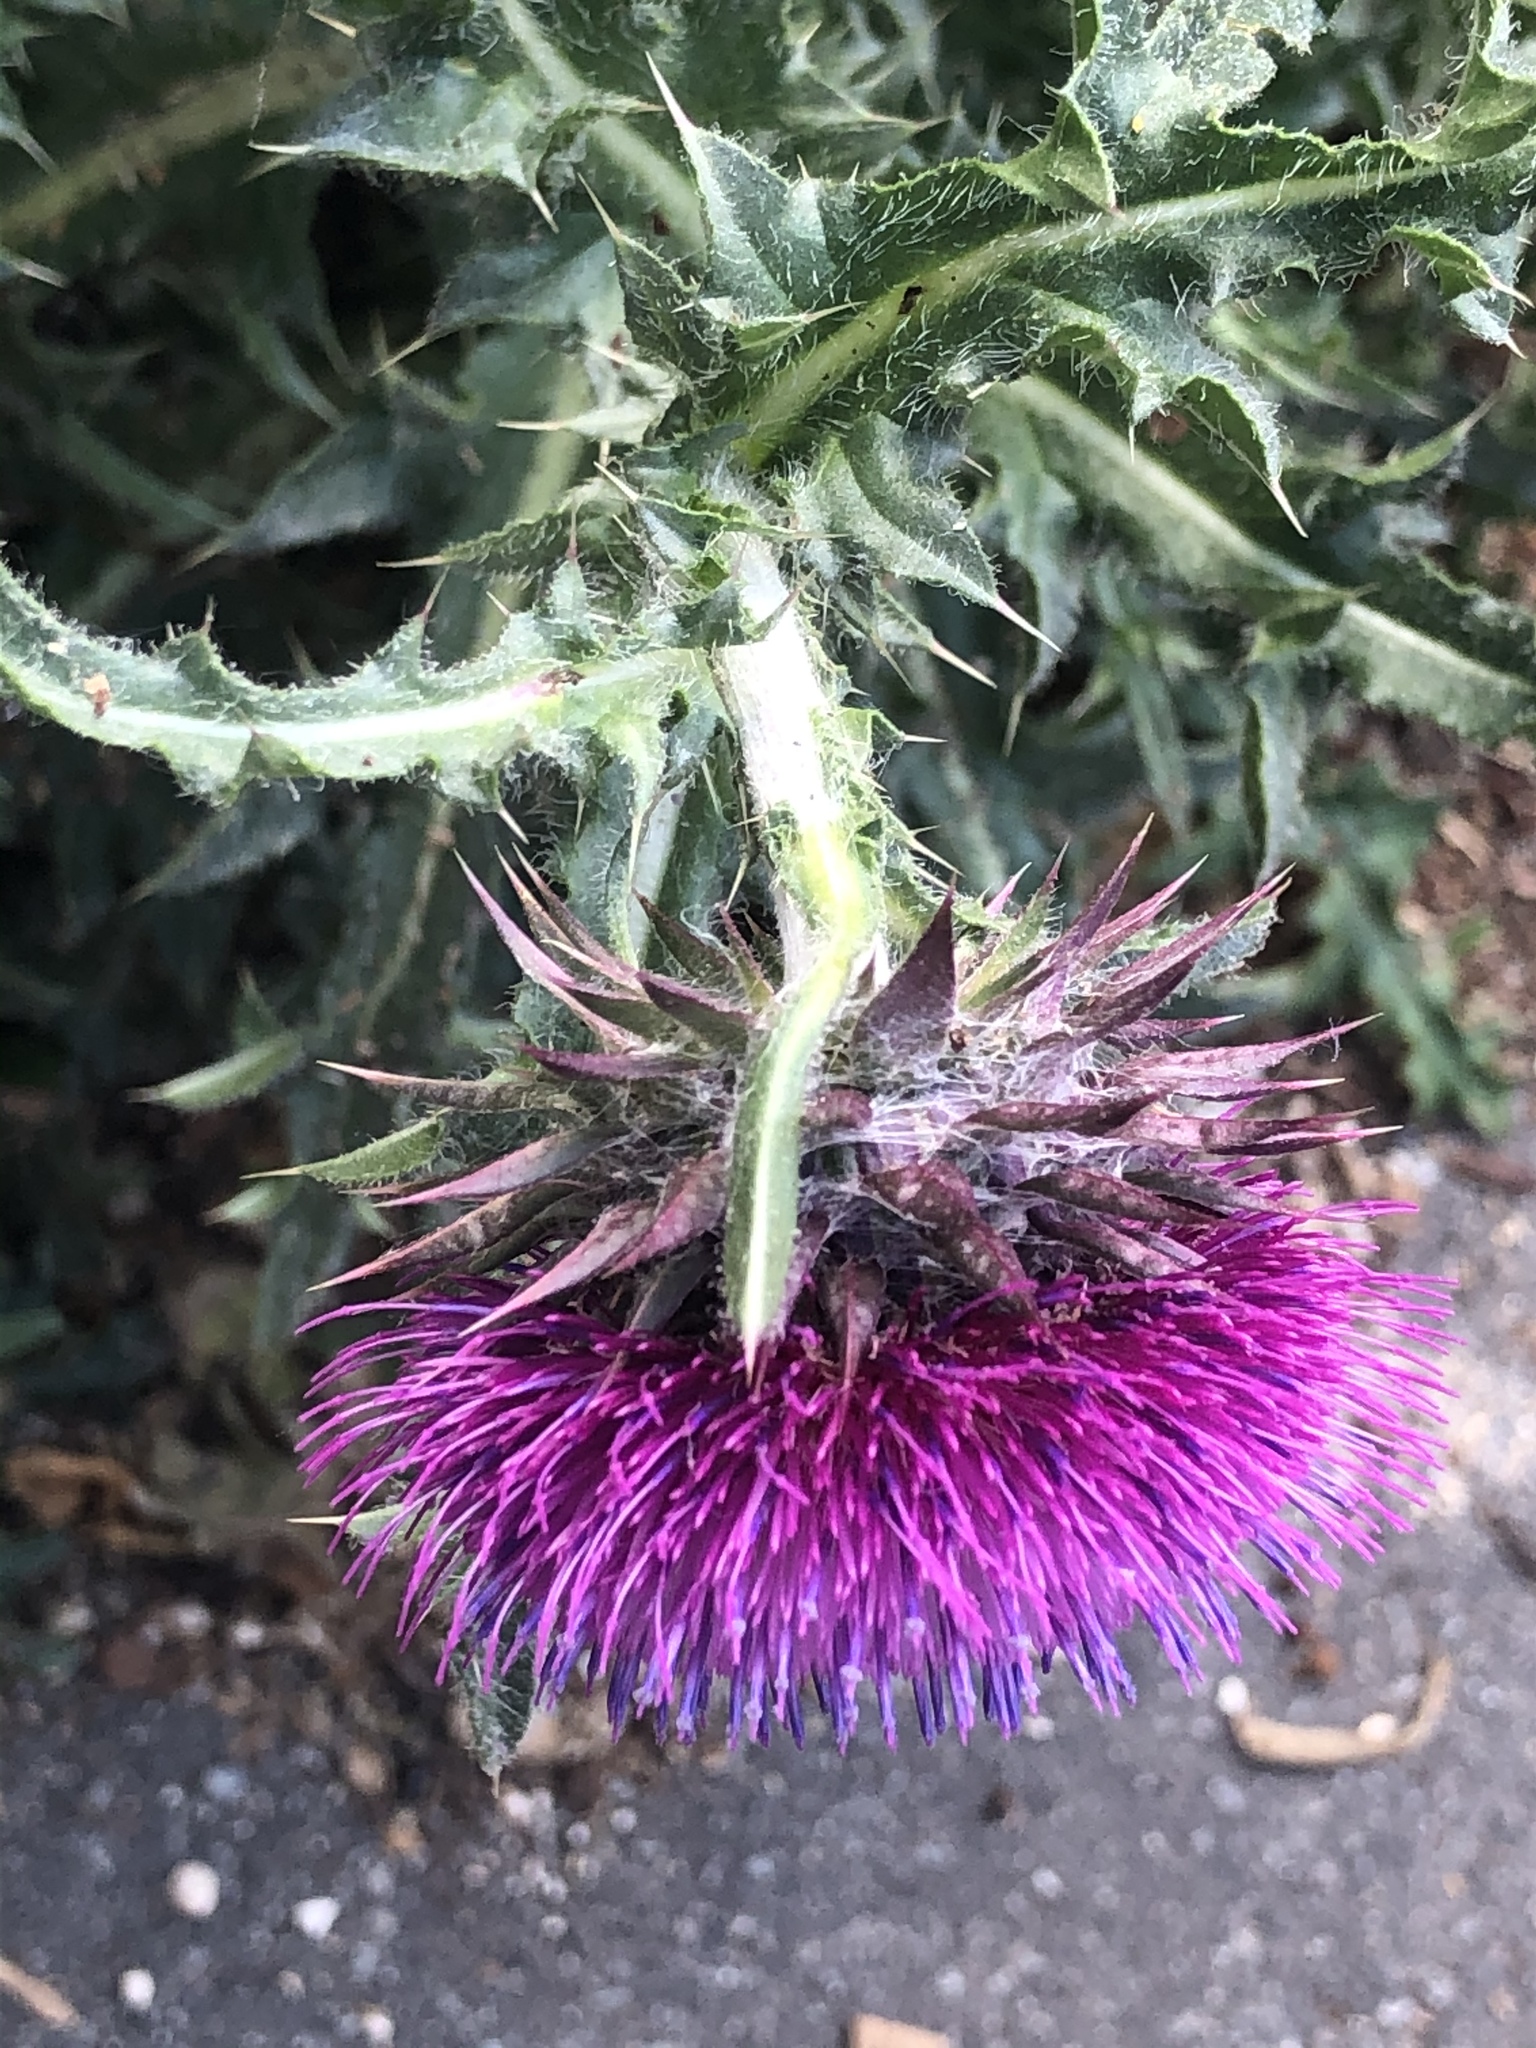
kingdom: Plantae
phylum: Tracheophyta
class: Magnoliopsida
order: Asterales
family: Asteraceae
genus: Carduus
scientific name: Carduus nutans
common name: Musk thistle
